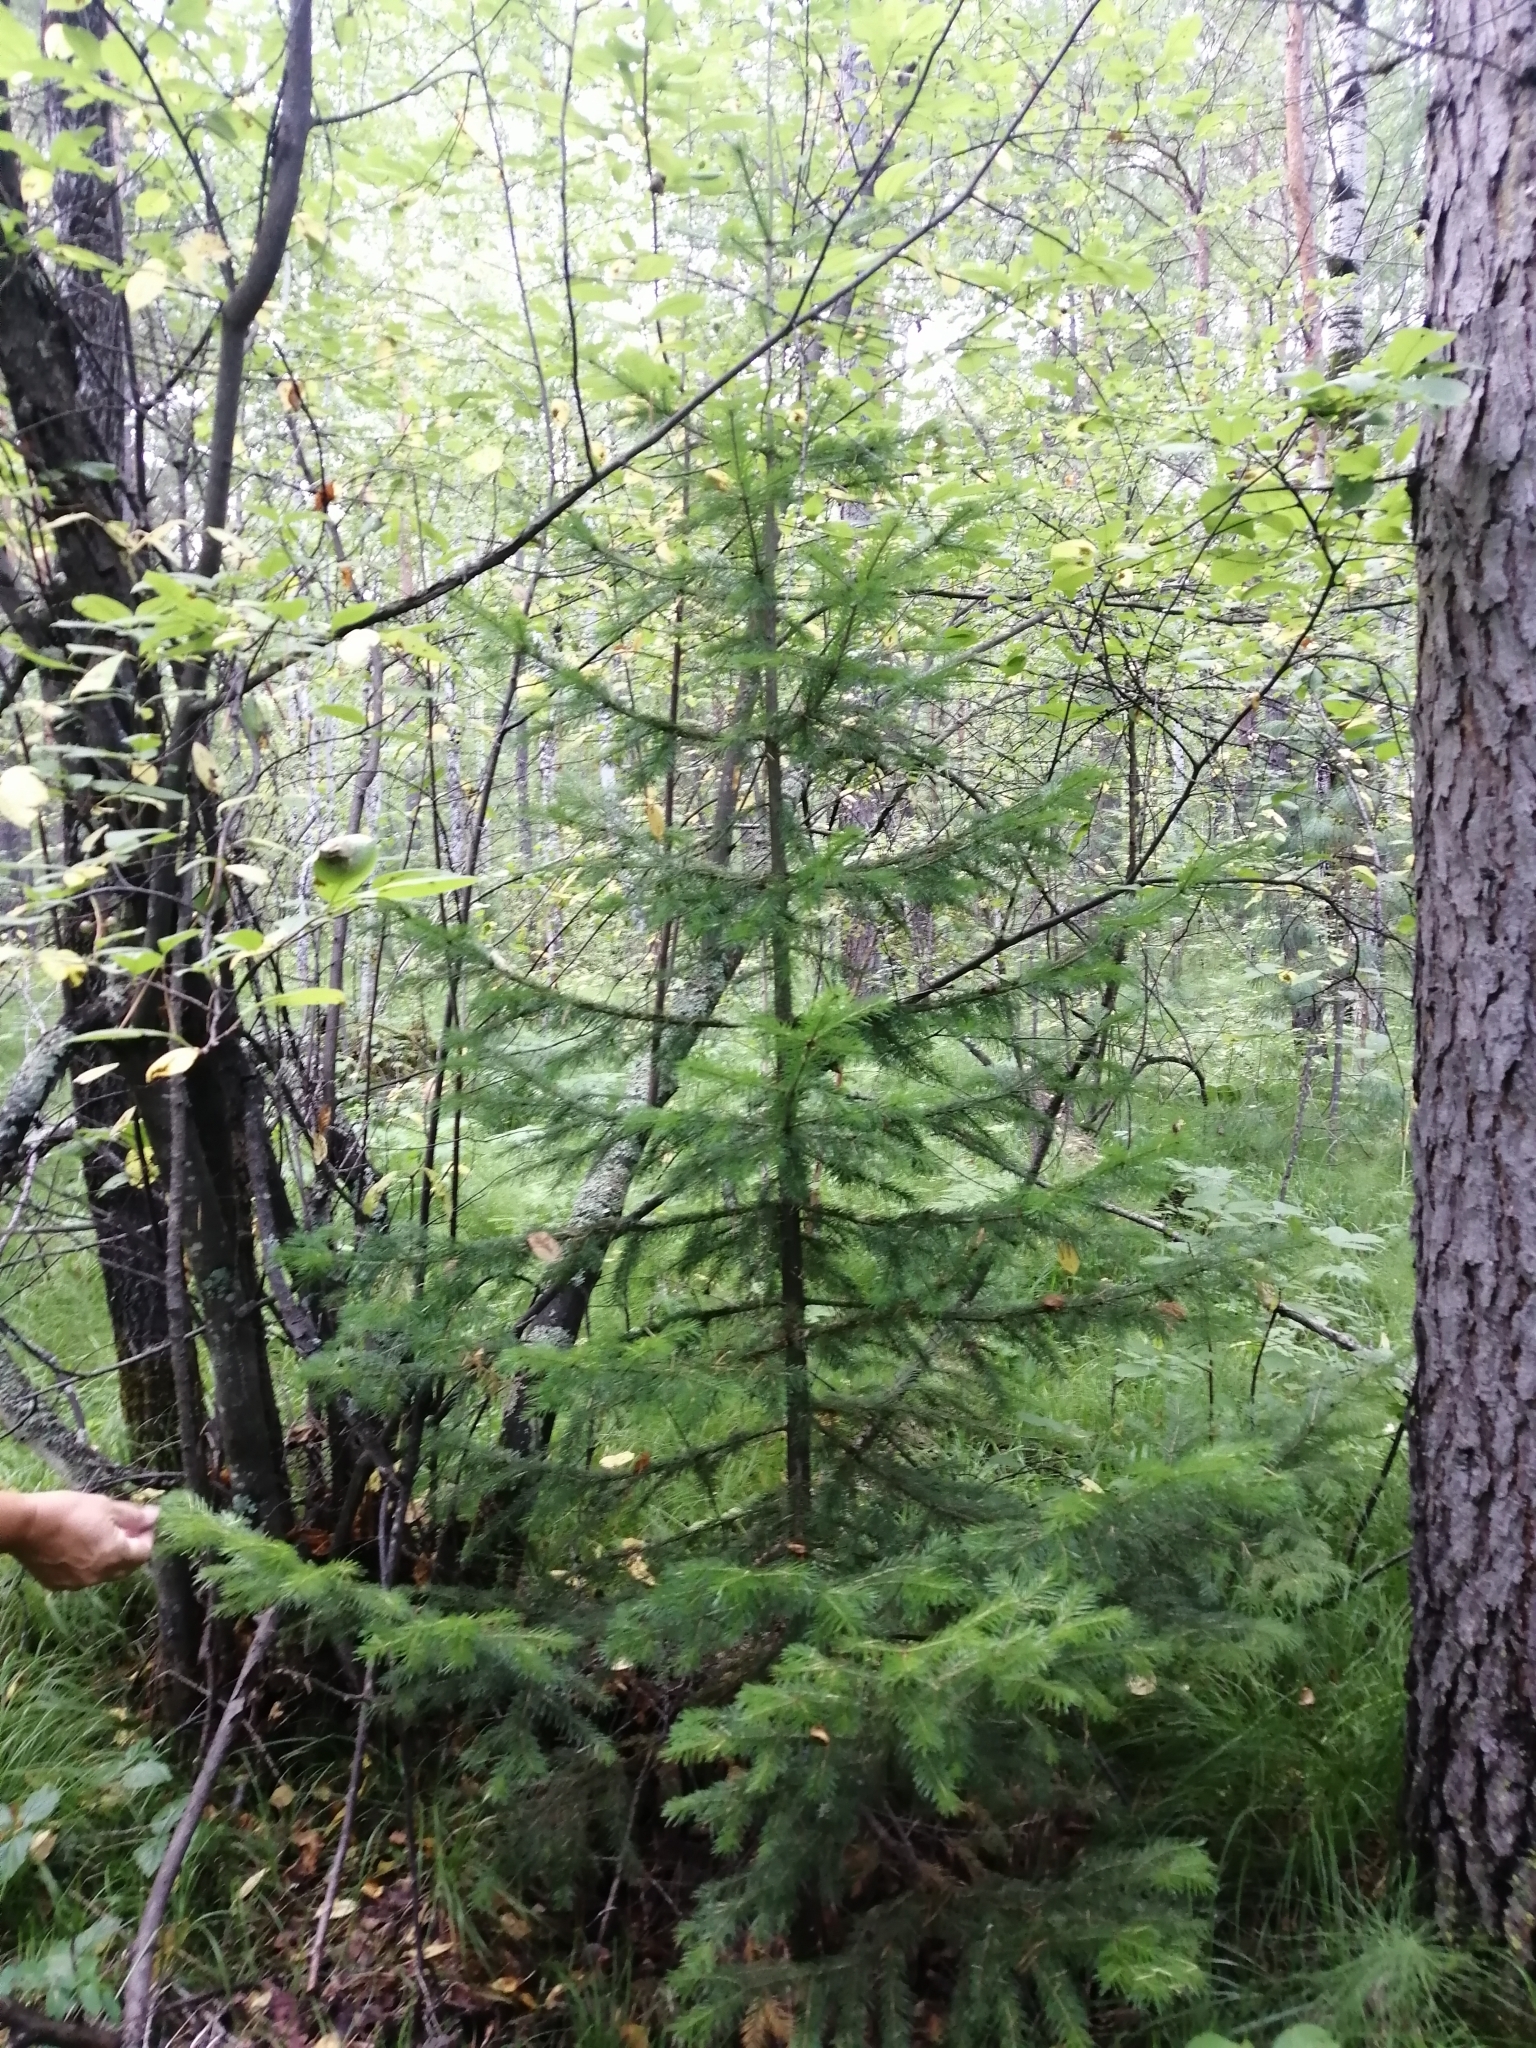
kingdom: Plantae
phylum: Tracheophyta
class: Pinopsida
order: Pinales
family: Pinaceae
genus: Abies
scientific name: Abies sibirica
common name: Siberian fir
